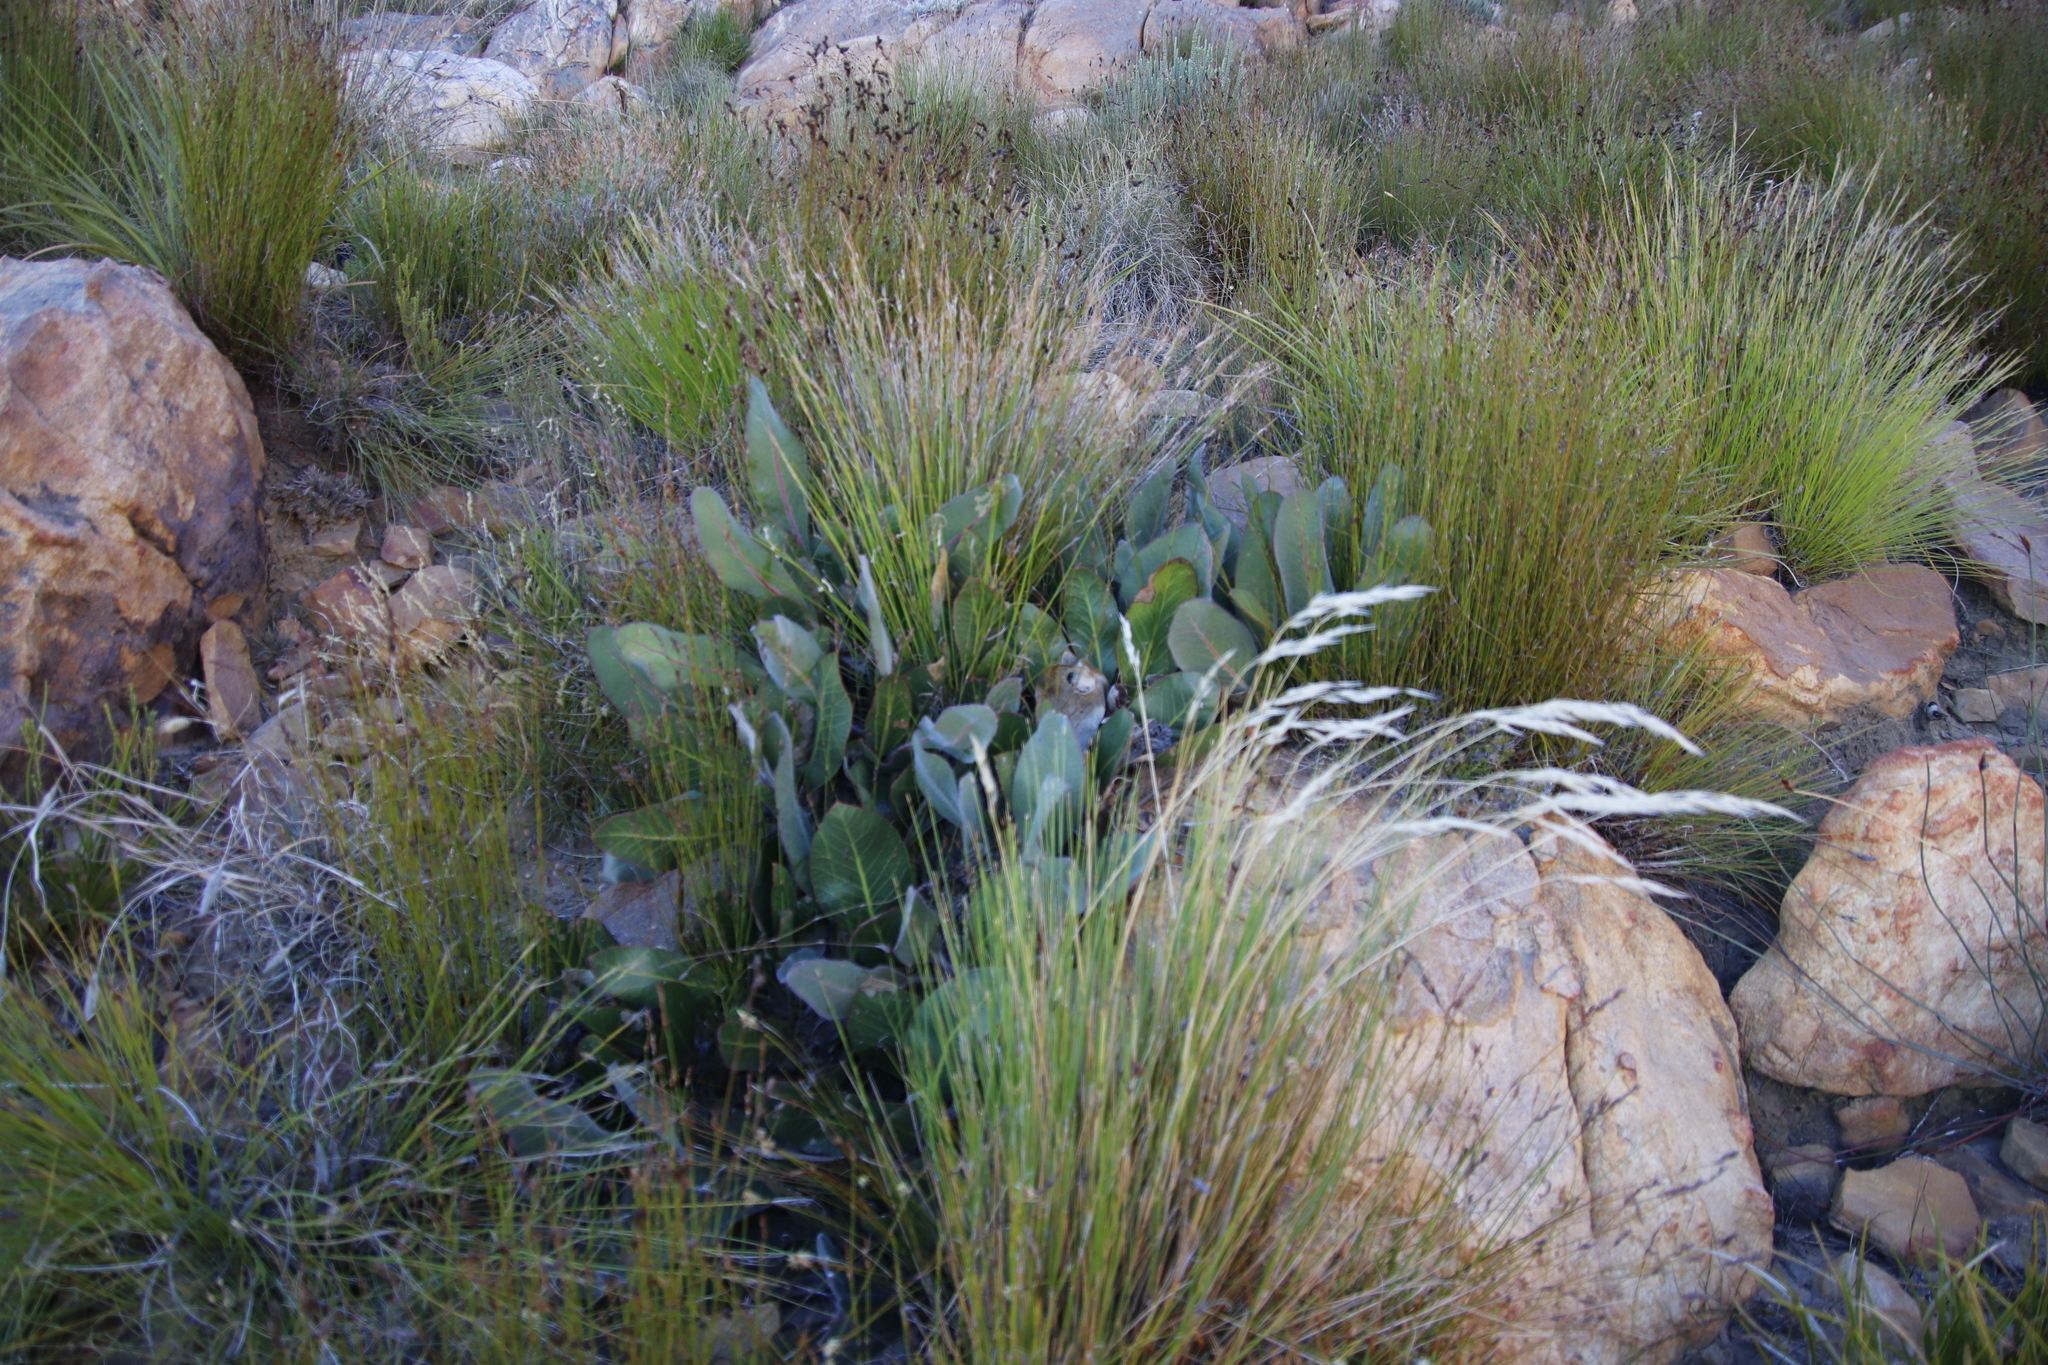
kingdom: Plantae
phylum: Tracheophyta
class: Magnoliopsida
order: Proteales
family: Proteaceae
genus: Protea
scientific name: Protea scolopendriifolia
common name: Harts-tongue-fern sugarbush
